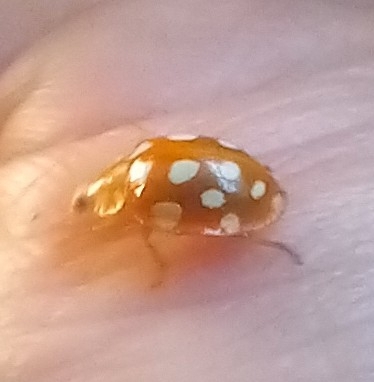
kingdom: Animalia
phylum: Arthropoda
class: Insecta
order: Coleoptera
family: Coccinellidae
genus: Halyzia
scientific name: Halyzia sedecimguttata
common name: Orange ladybird
